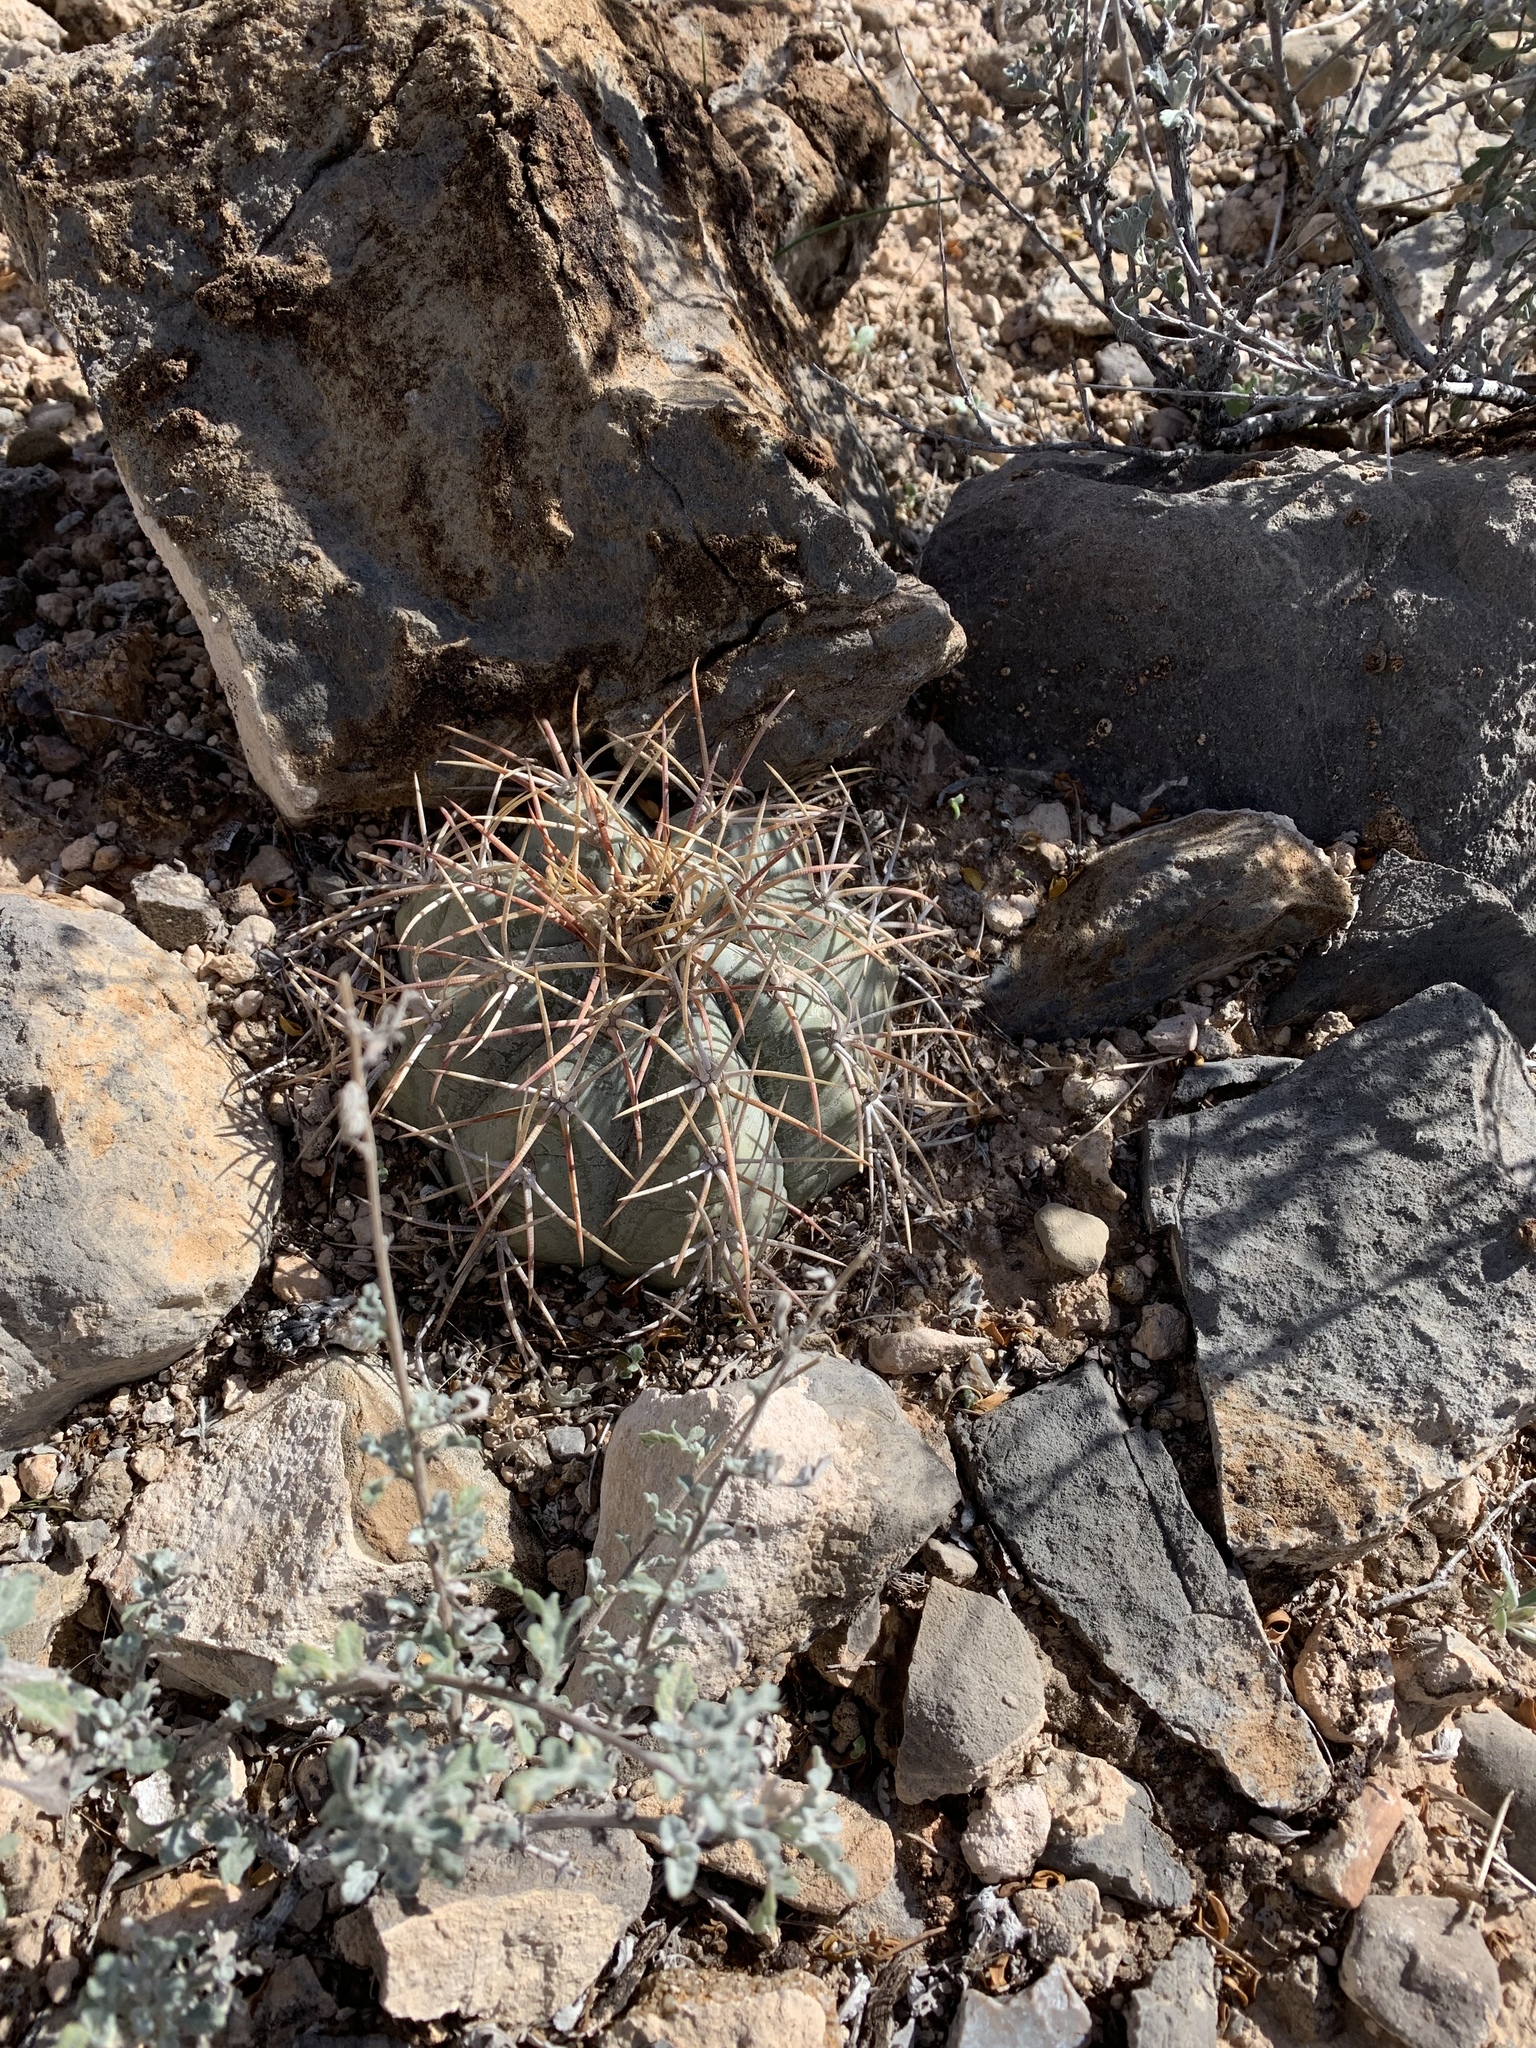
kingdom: Plantae
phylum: Tracheophyta
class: Magnoliopsida
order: Caryophyllales
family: Cactaceae
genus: Echinocactus
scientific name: Echinocactus horizonthalonius
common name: Devilshead
